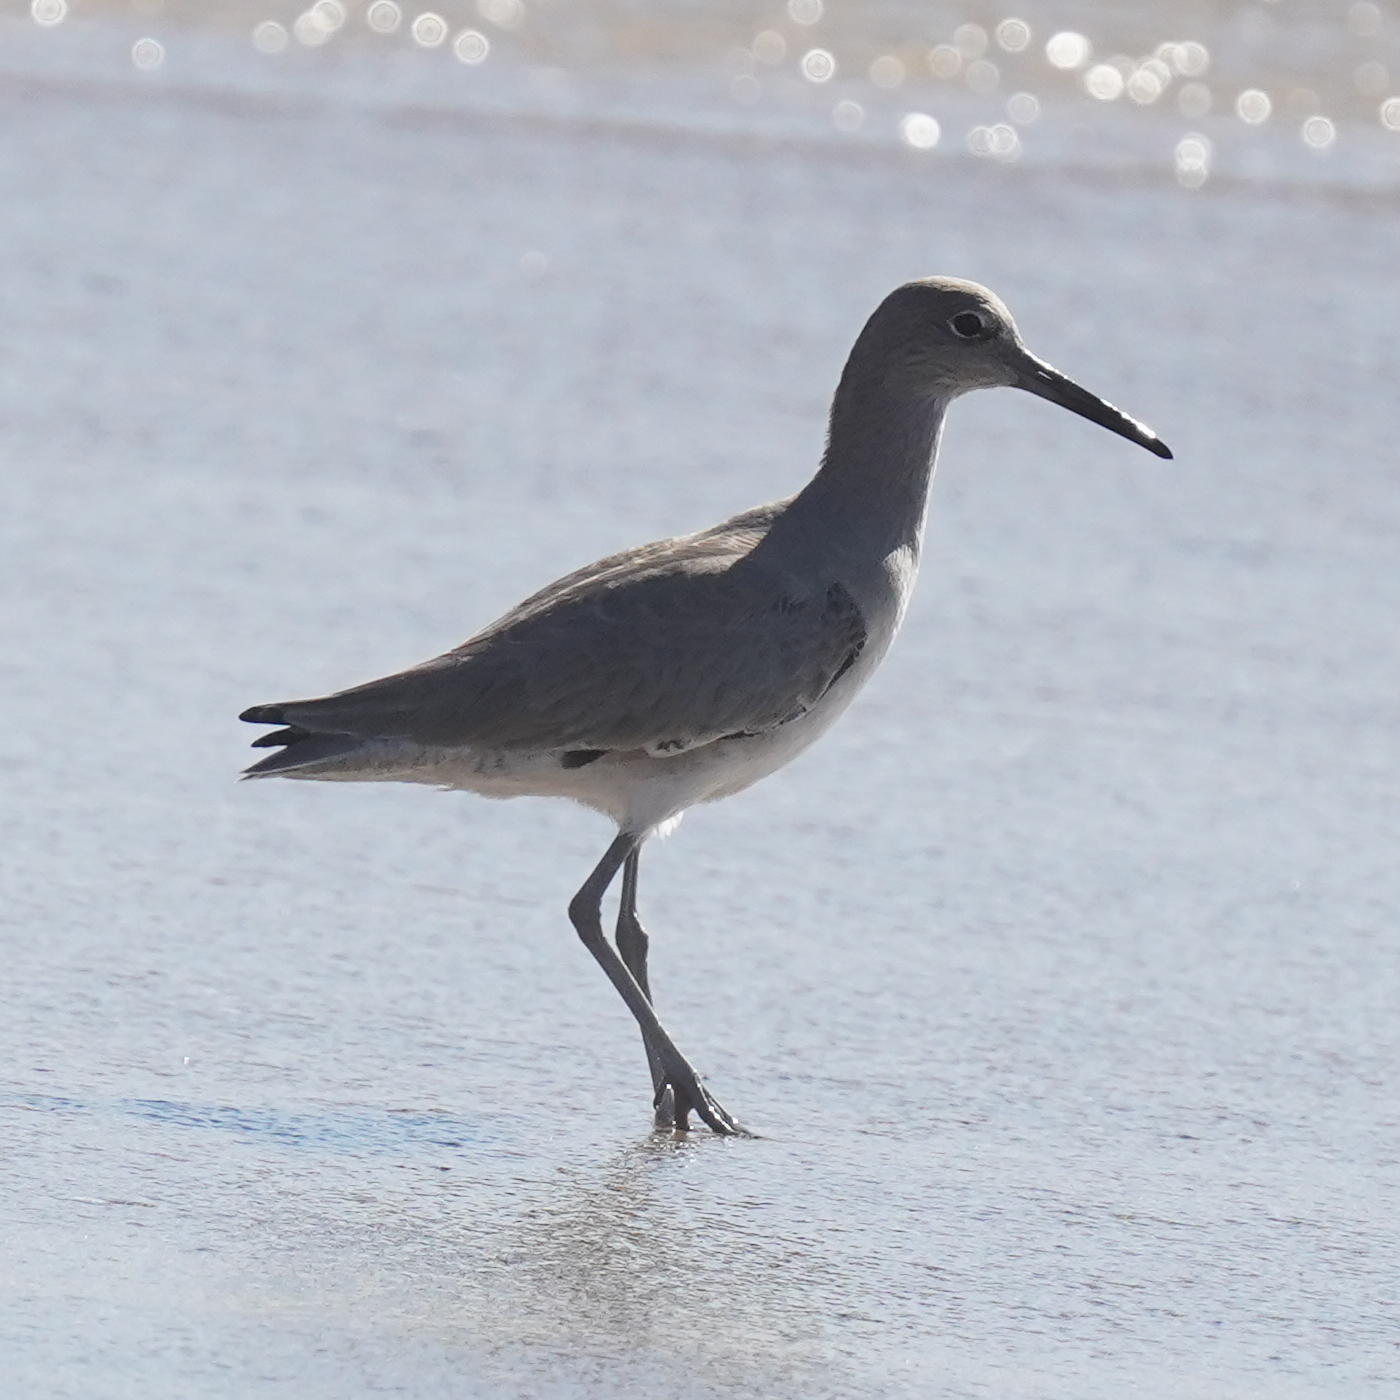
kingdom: Animalia
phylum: Chordata
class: Aves
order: Charadriiformes
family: Scolopacidae
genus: Tringa
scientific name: Tringa semipalmata
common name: Willet
